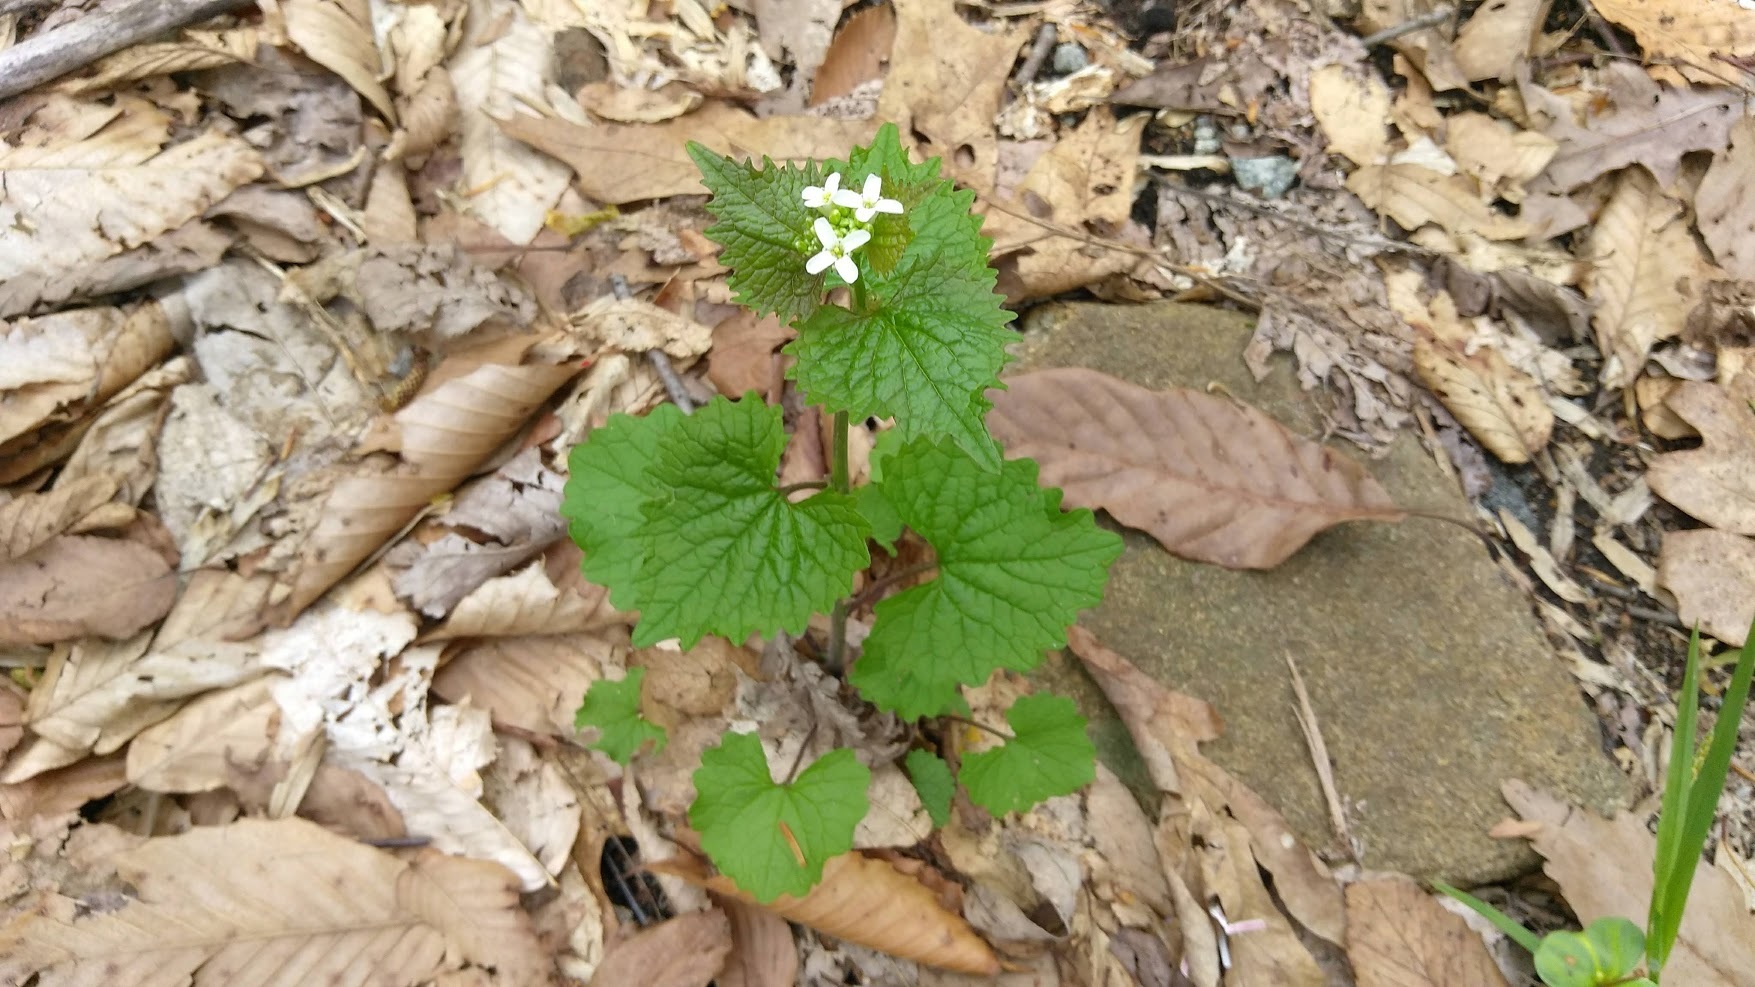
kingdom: Plantae
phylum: Tracheophyta
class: Magnoliopsida
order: Brassicales
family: Brassicaceae
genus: Alliaria
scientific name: Alliaria petiolata
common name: Garlic mustard
